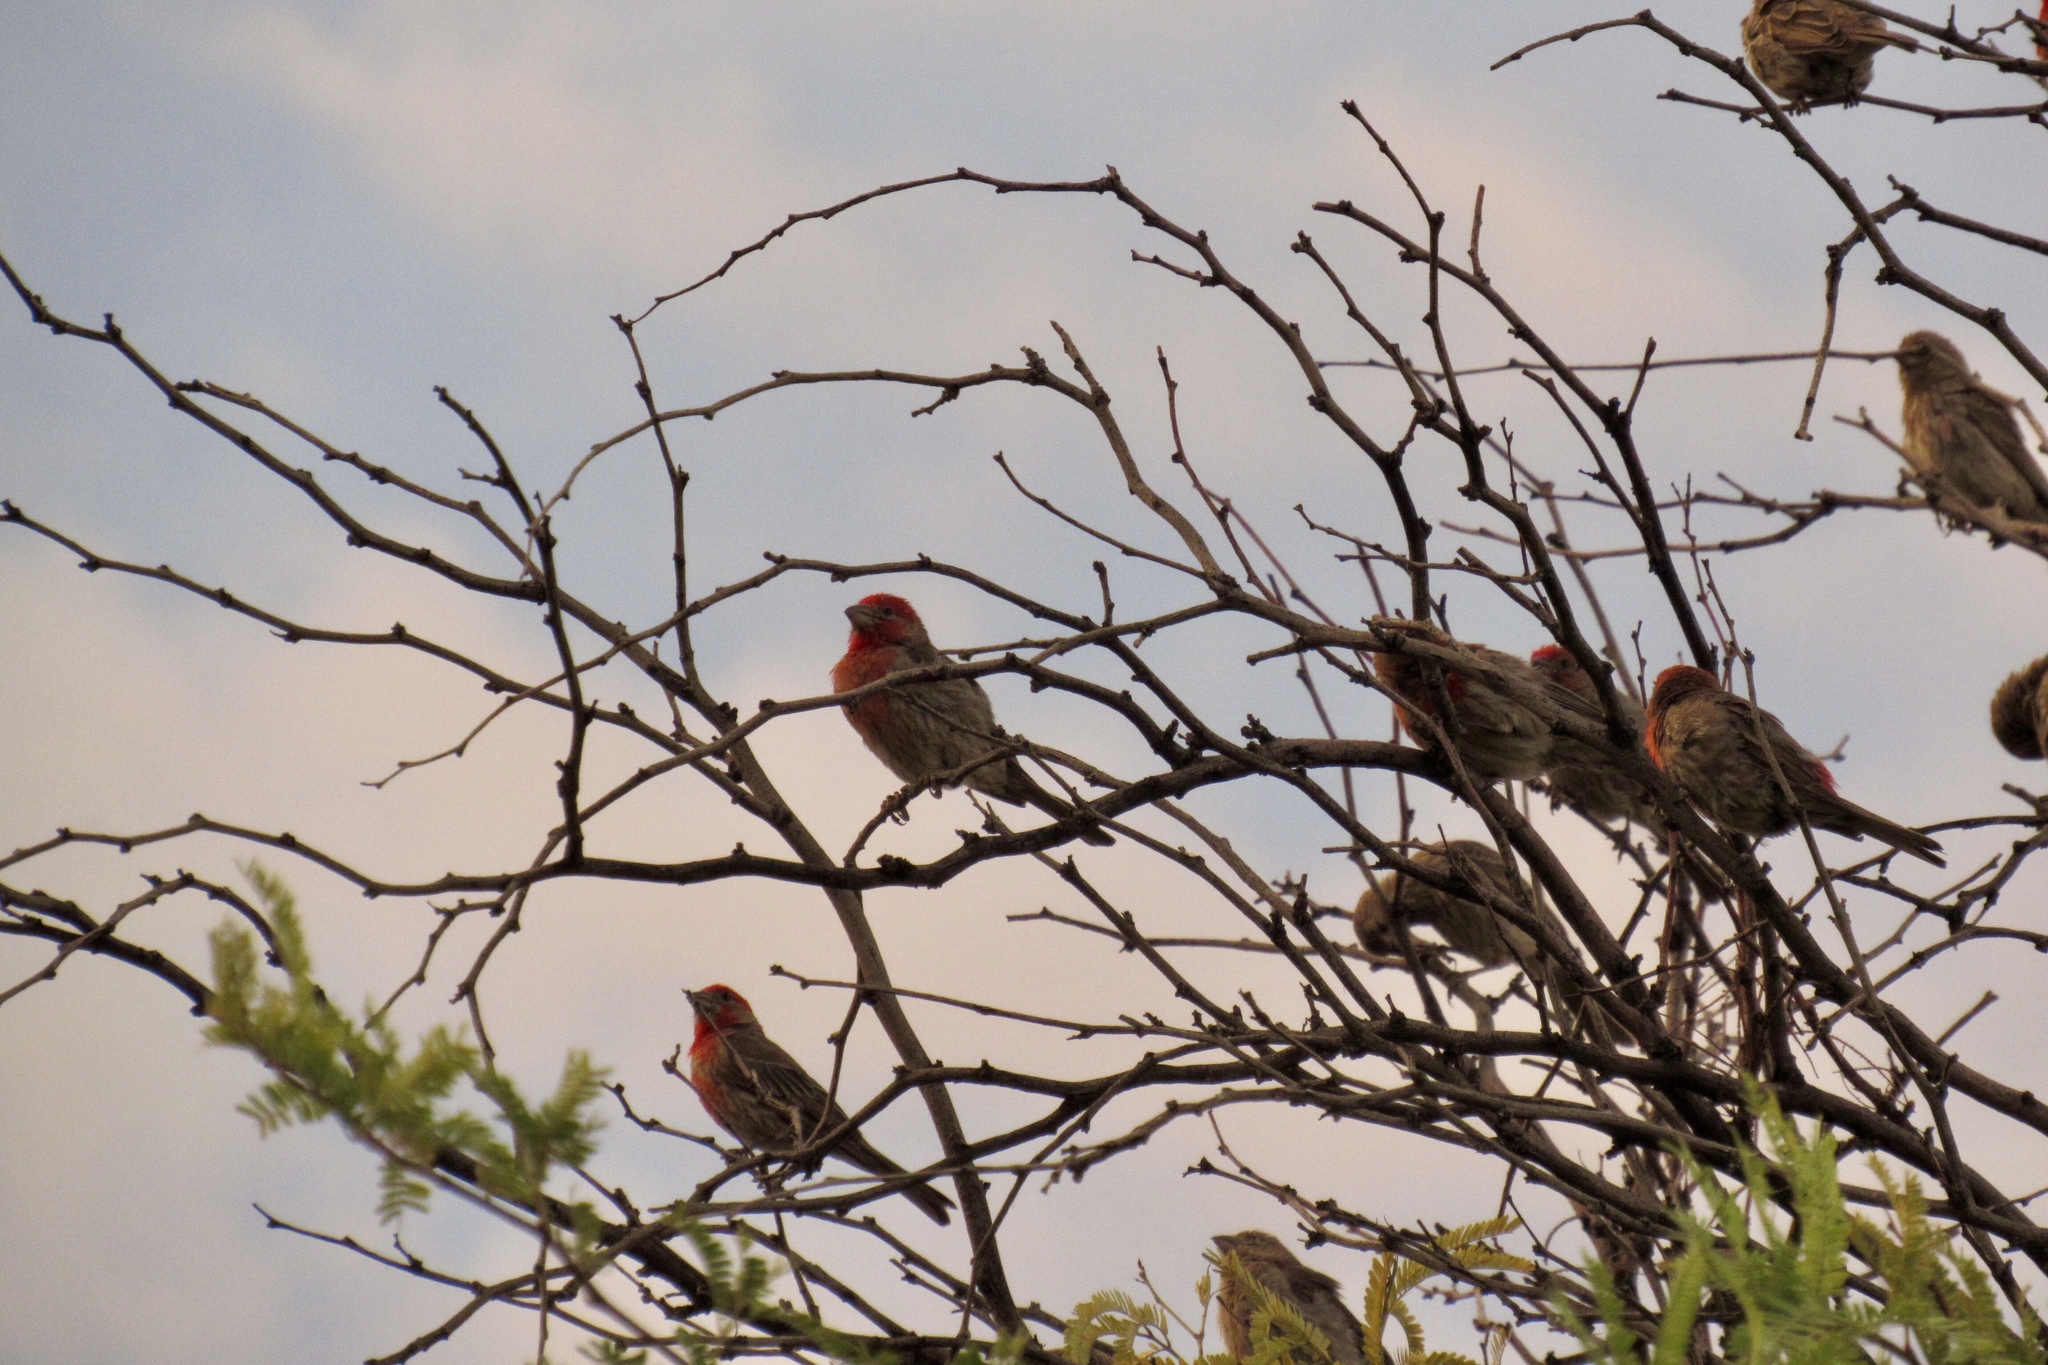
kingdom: Animalia
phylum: Chordata
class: Aves
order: Passeriformes
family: Fringillidae
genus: Haemorhous
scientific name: Haemorhous mexicanus
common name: House finch
